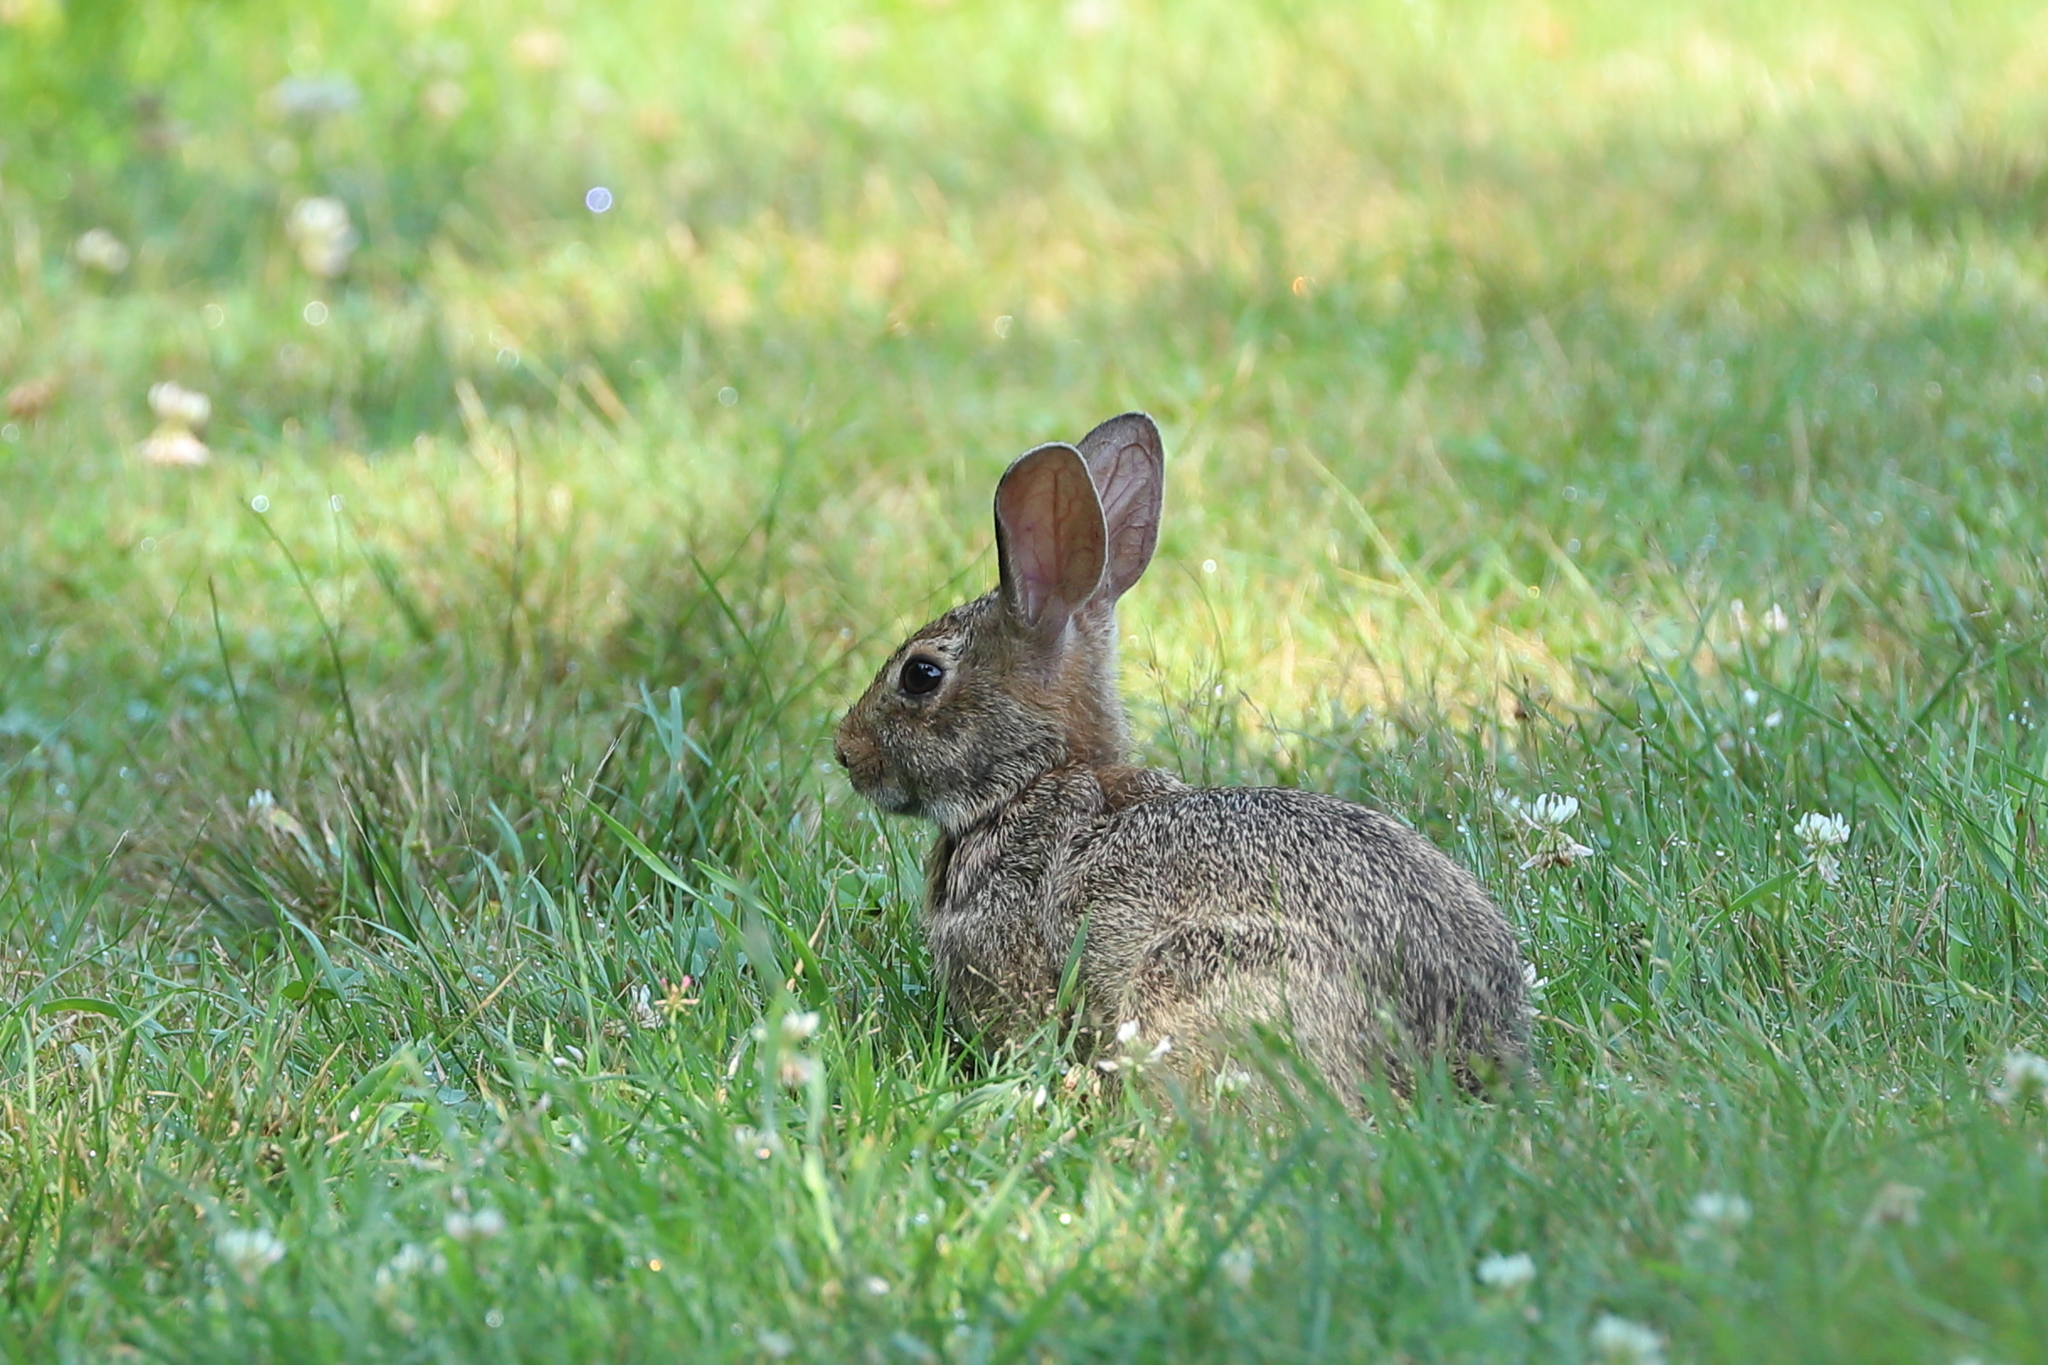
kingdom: Animalia
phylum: Chordata
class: Mammalia
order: Lagomorpha
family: Leporidae
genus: Sylvilagus
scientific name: Sylvilagus floridanus
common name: Eastern cottontail
